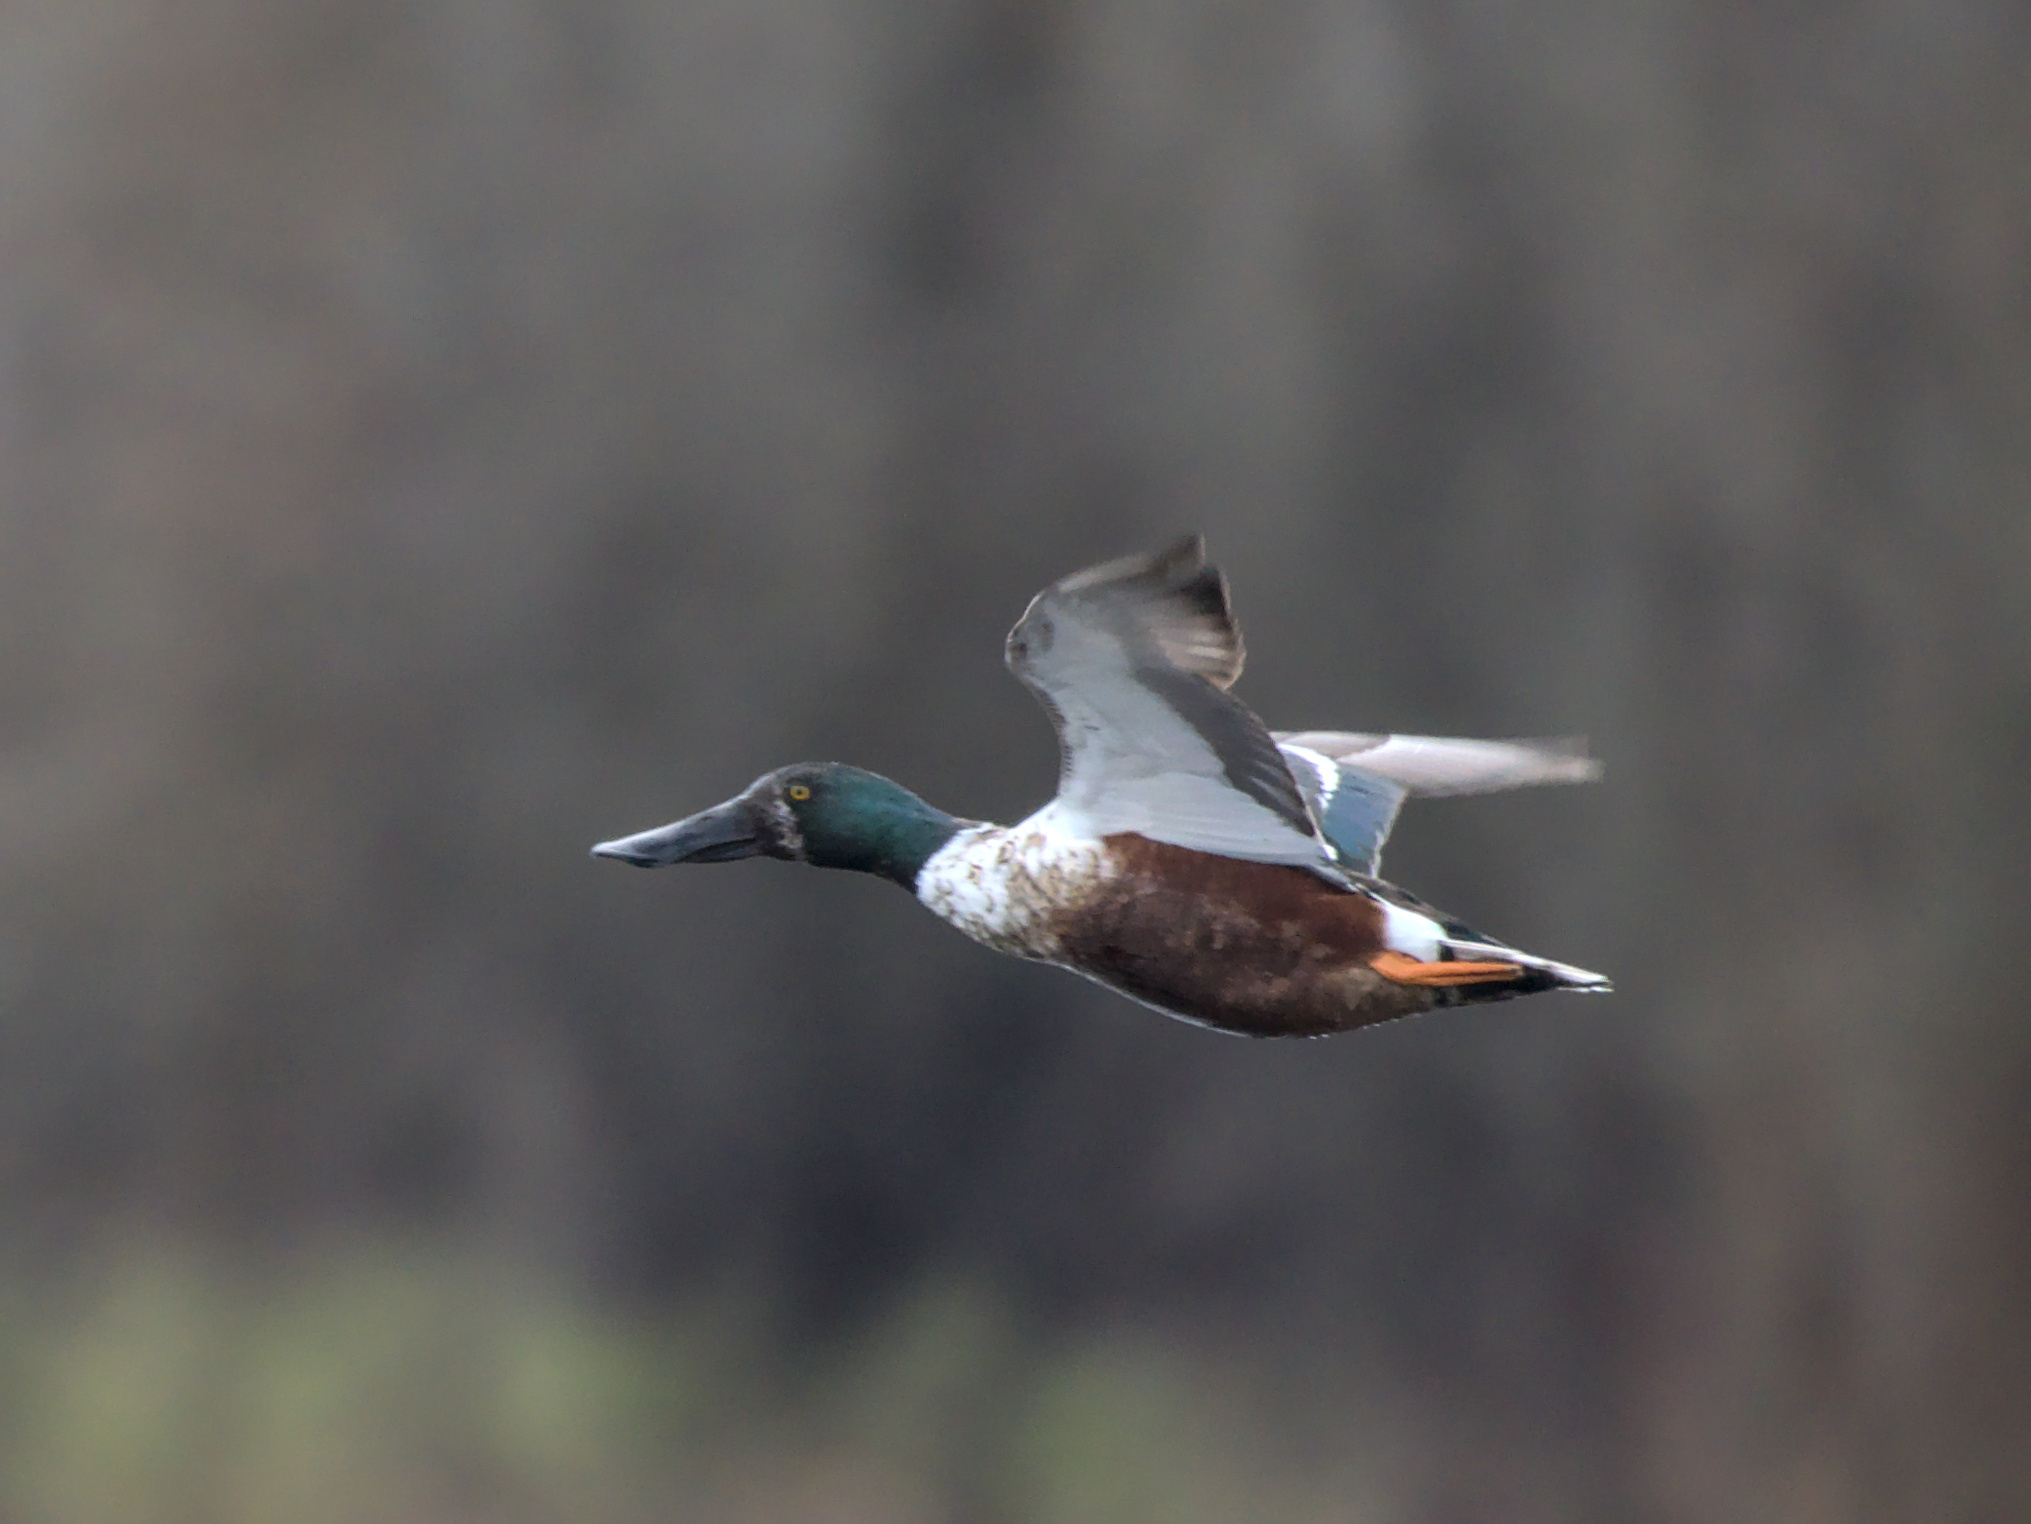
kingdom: Animalia
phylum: Chordata
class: Aves
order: Anseriformes
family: Anatidae
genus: Spatula
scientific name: Spatula clypeata
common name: Northern shoveler
